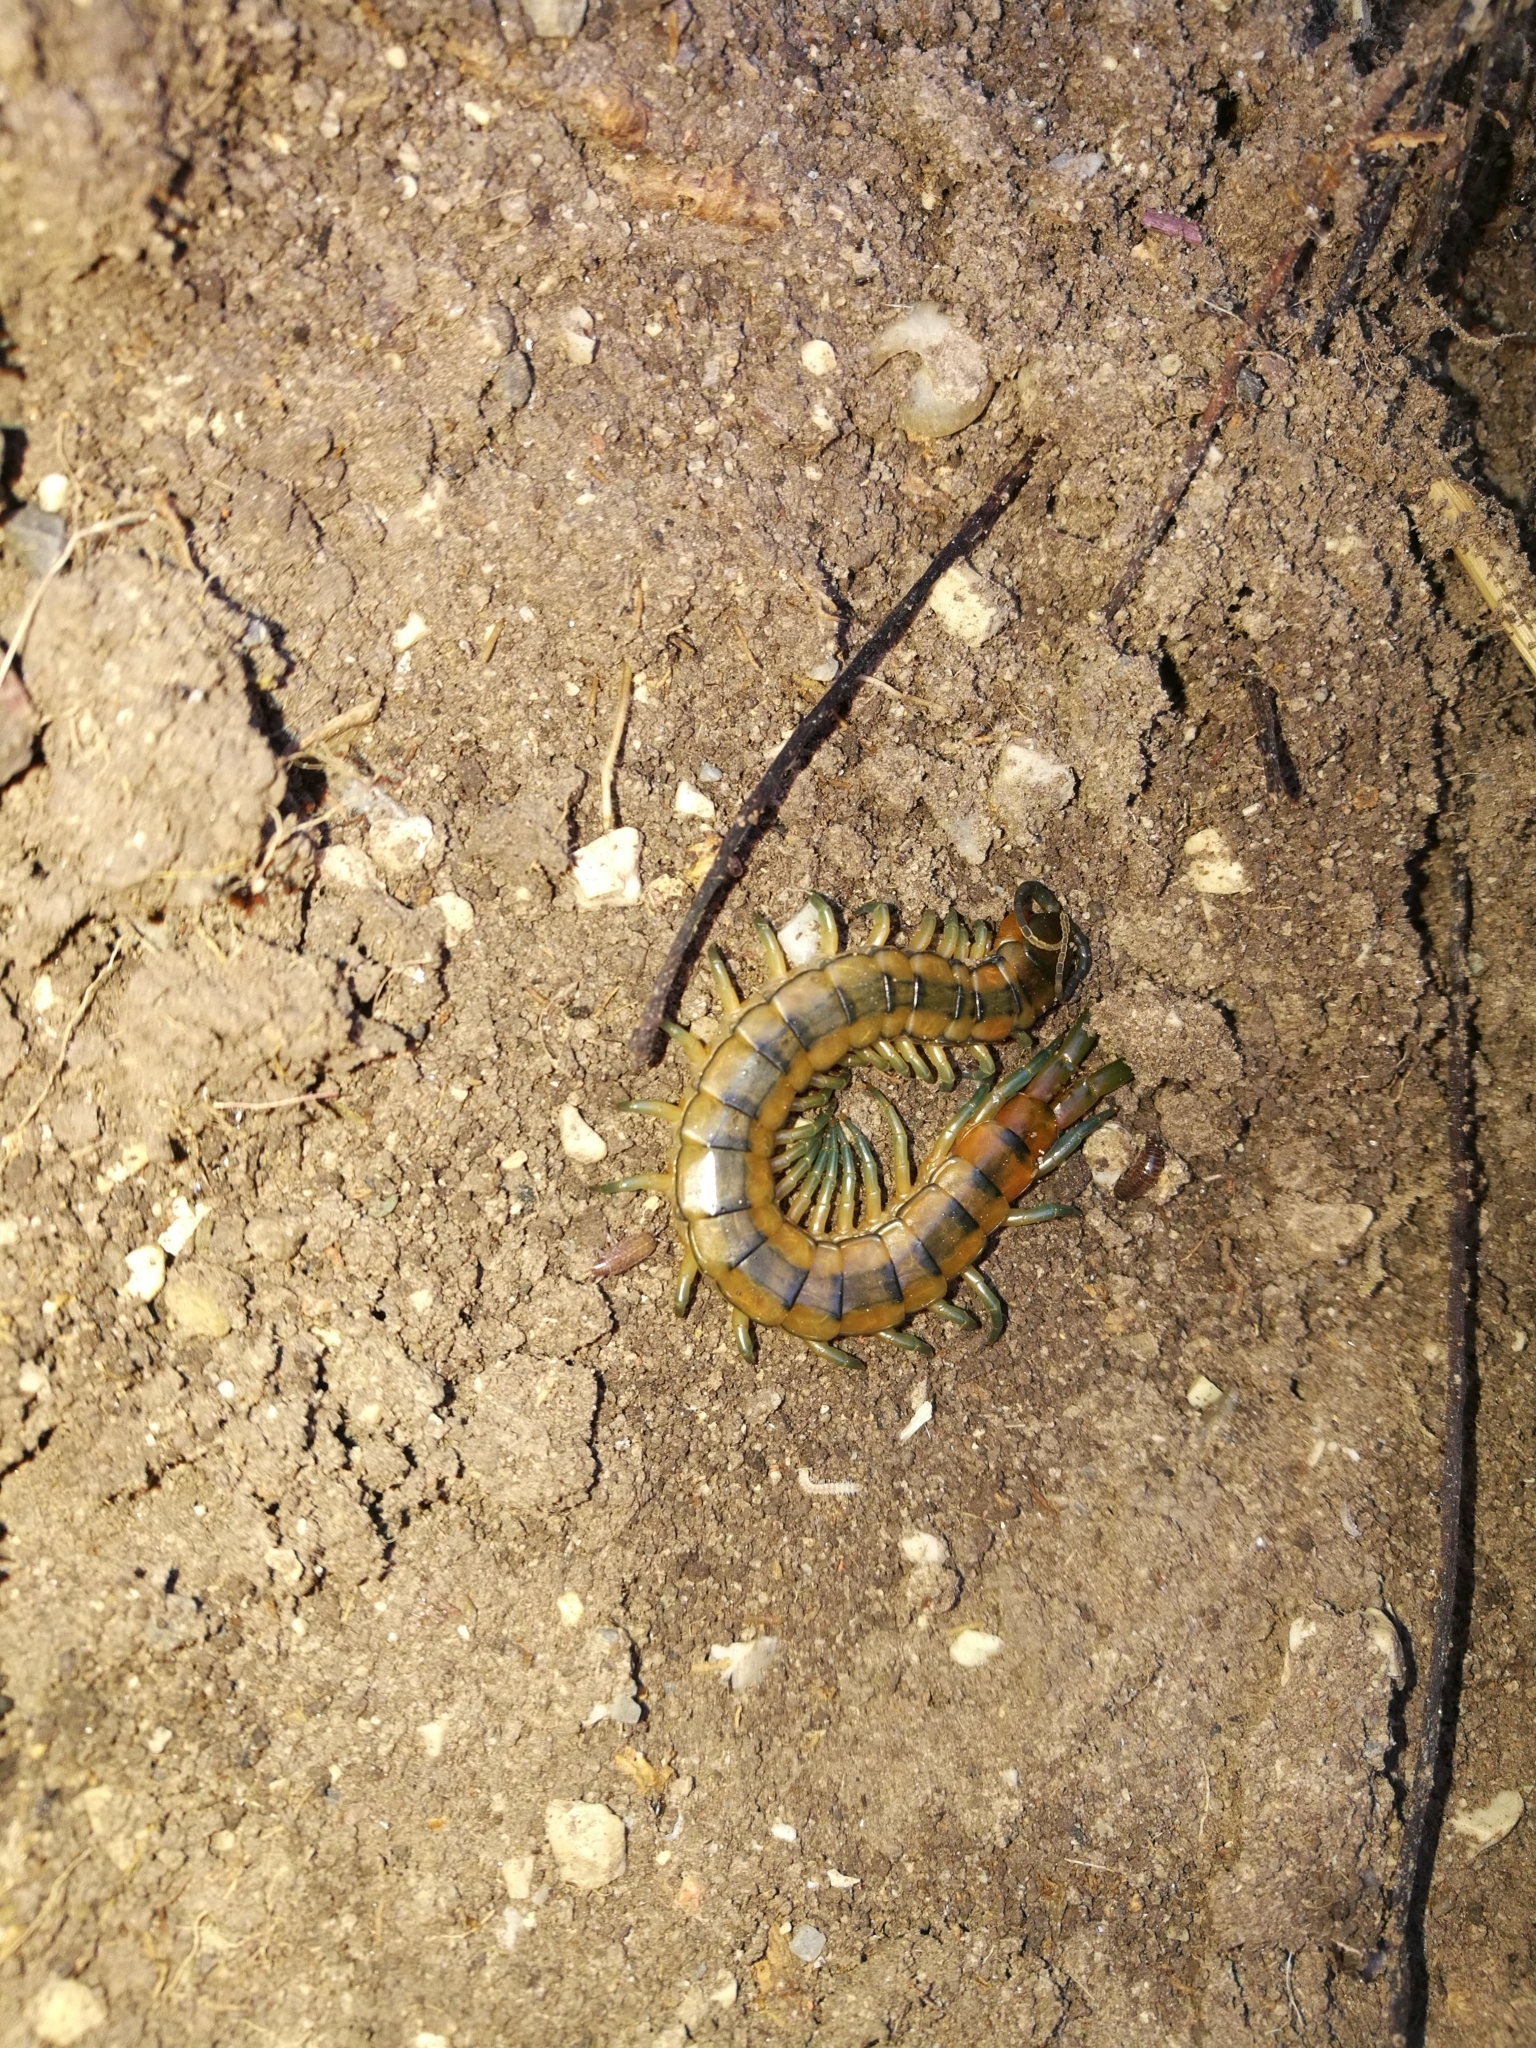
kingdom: Animalia
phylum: Arthropoda
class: Chilopoda
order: Scolopendromorpha
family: Scolopendridae
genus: Scolopendra
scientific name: Scolopendra cingulata
